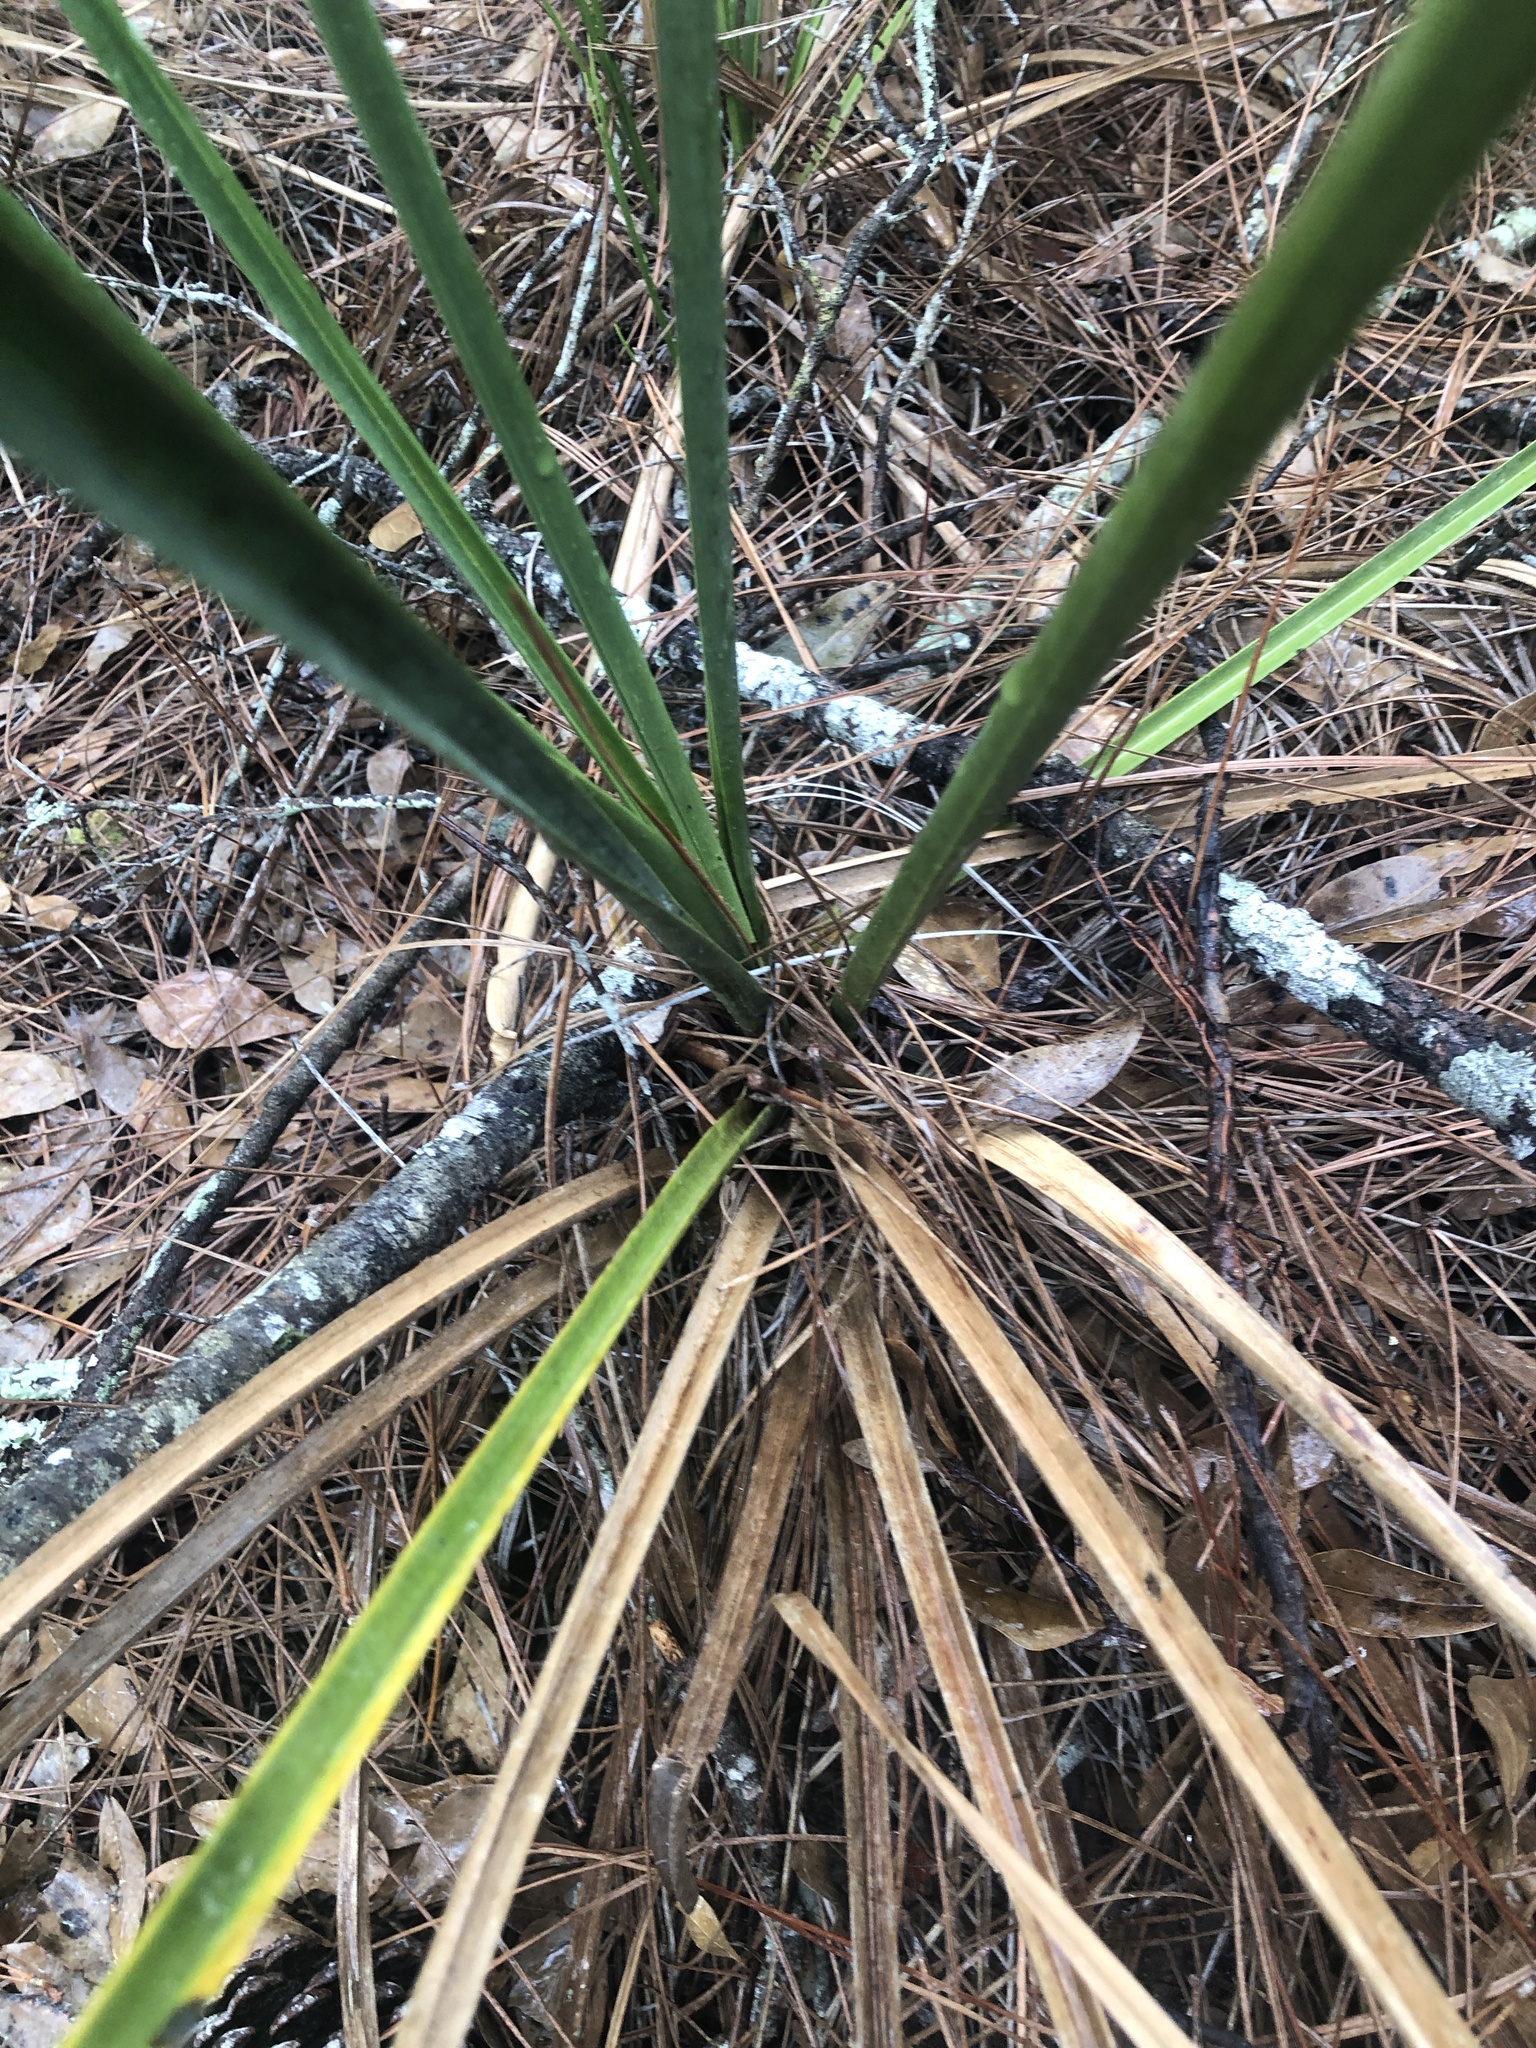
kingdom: Plantae
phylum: Tracheophyta
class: Liliopsida
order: Poales
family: Cyperaceae
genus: Cladium
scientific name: Cladium mariscus
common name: Great fen-sedge
